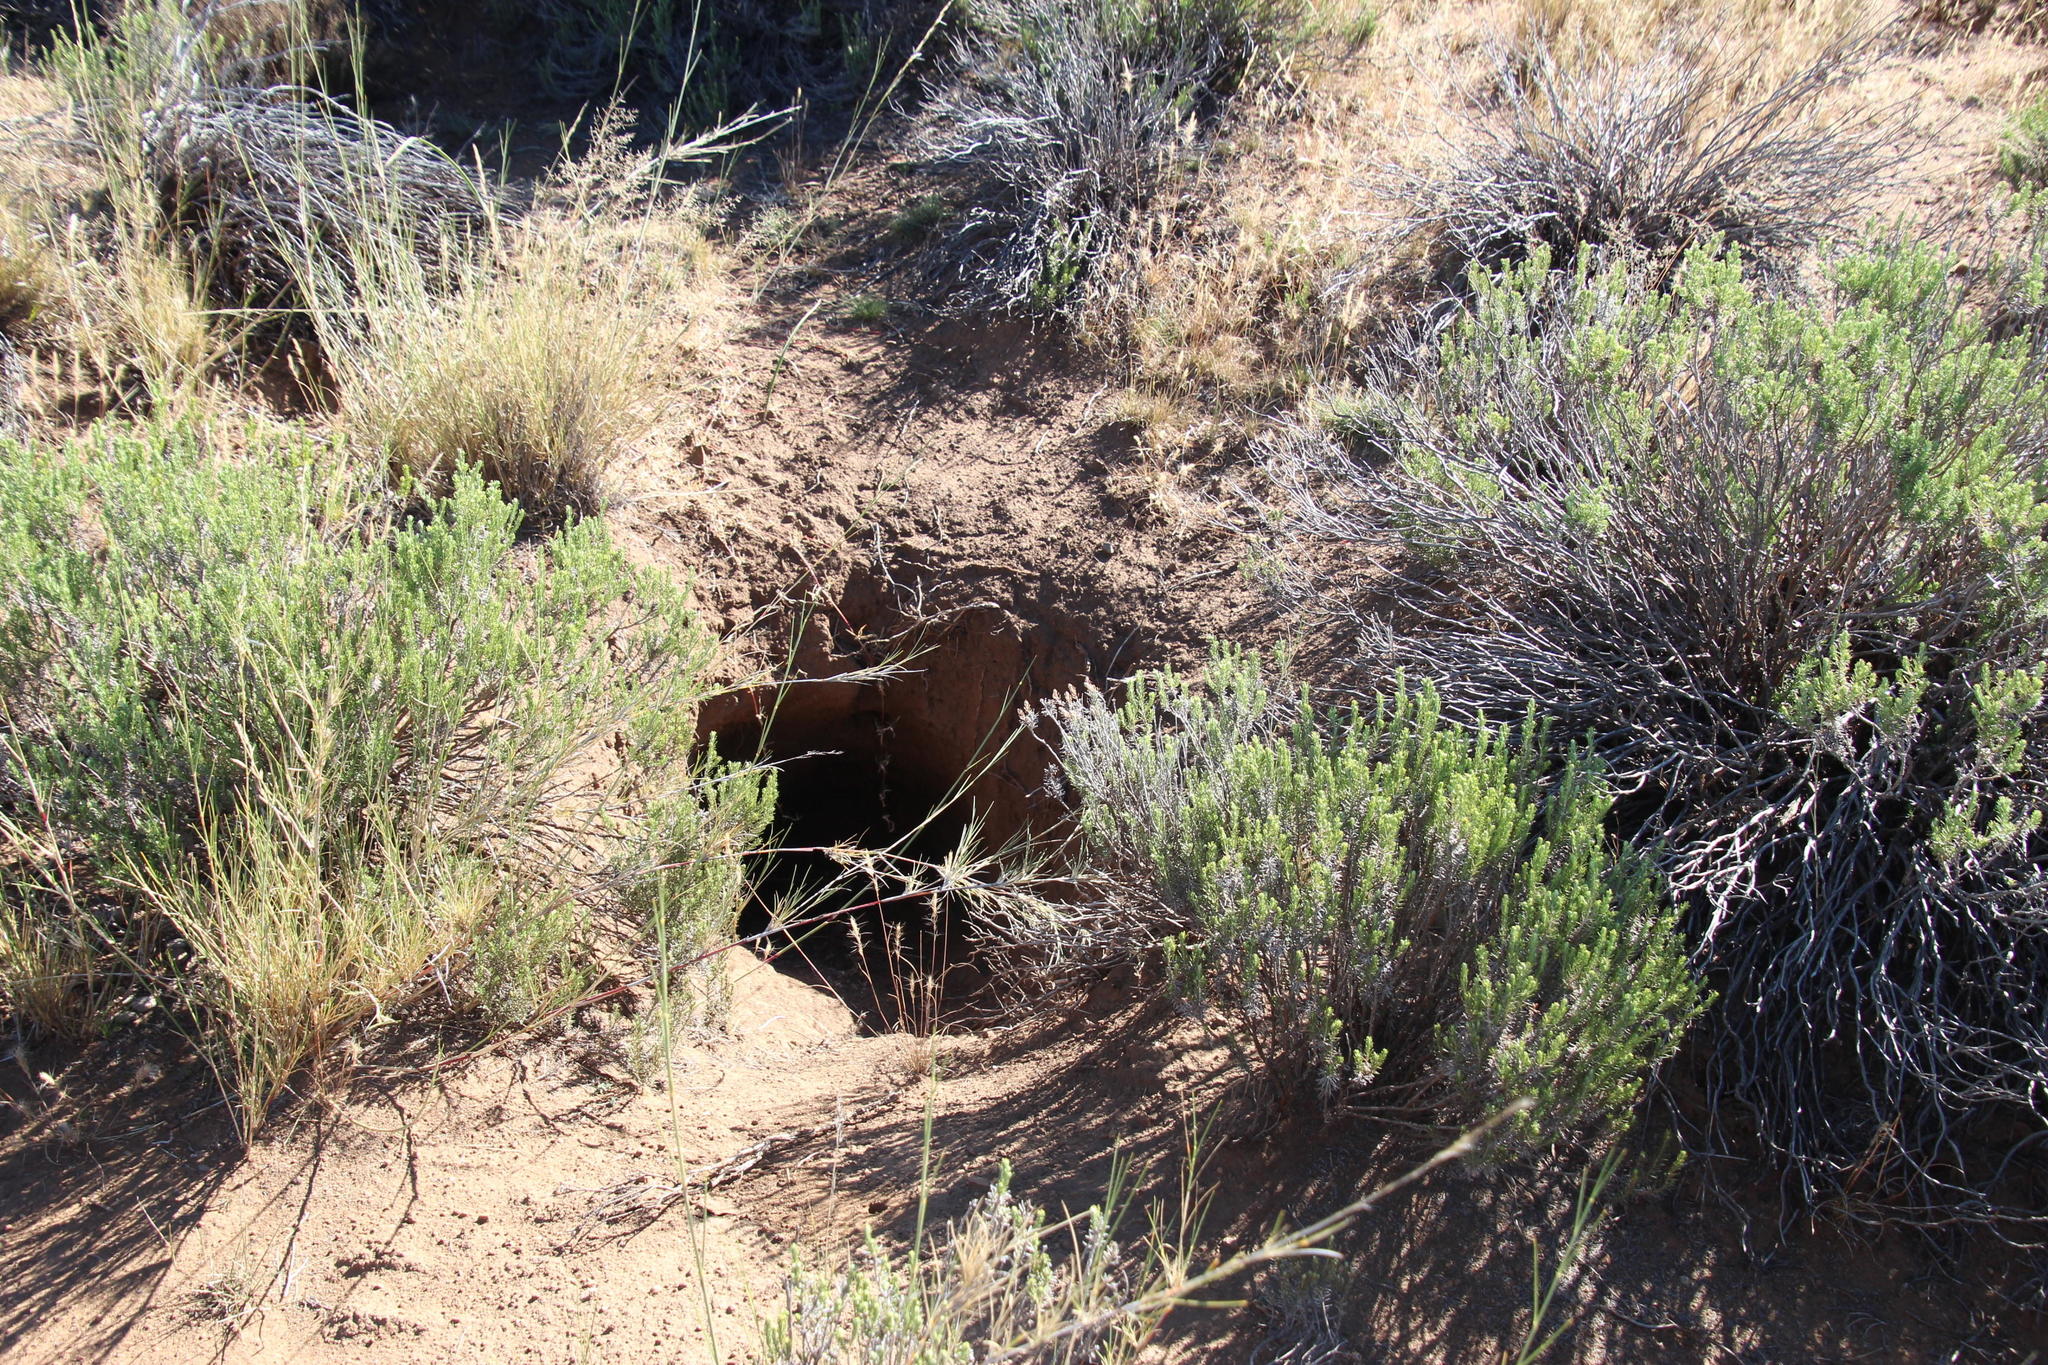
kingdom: Animalia
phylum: Chordata
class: Mammalia
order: Tubulidentata
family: Orycteropodidae
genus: Orycteropus
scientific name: Orycteropus afer
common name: Aardvark
